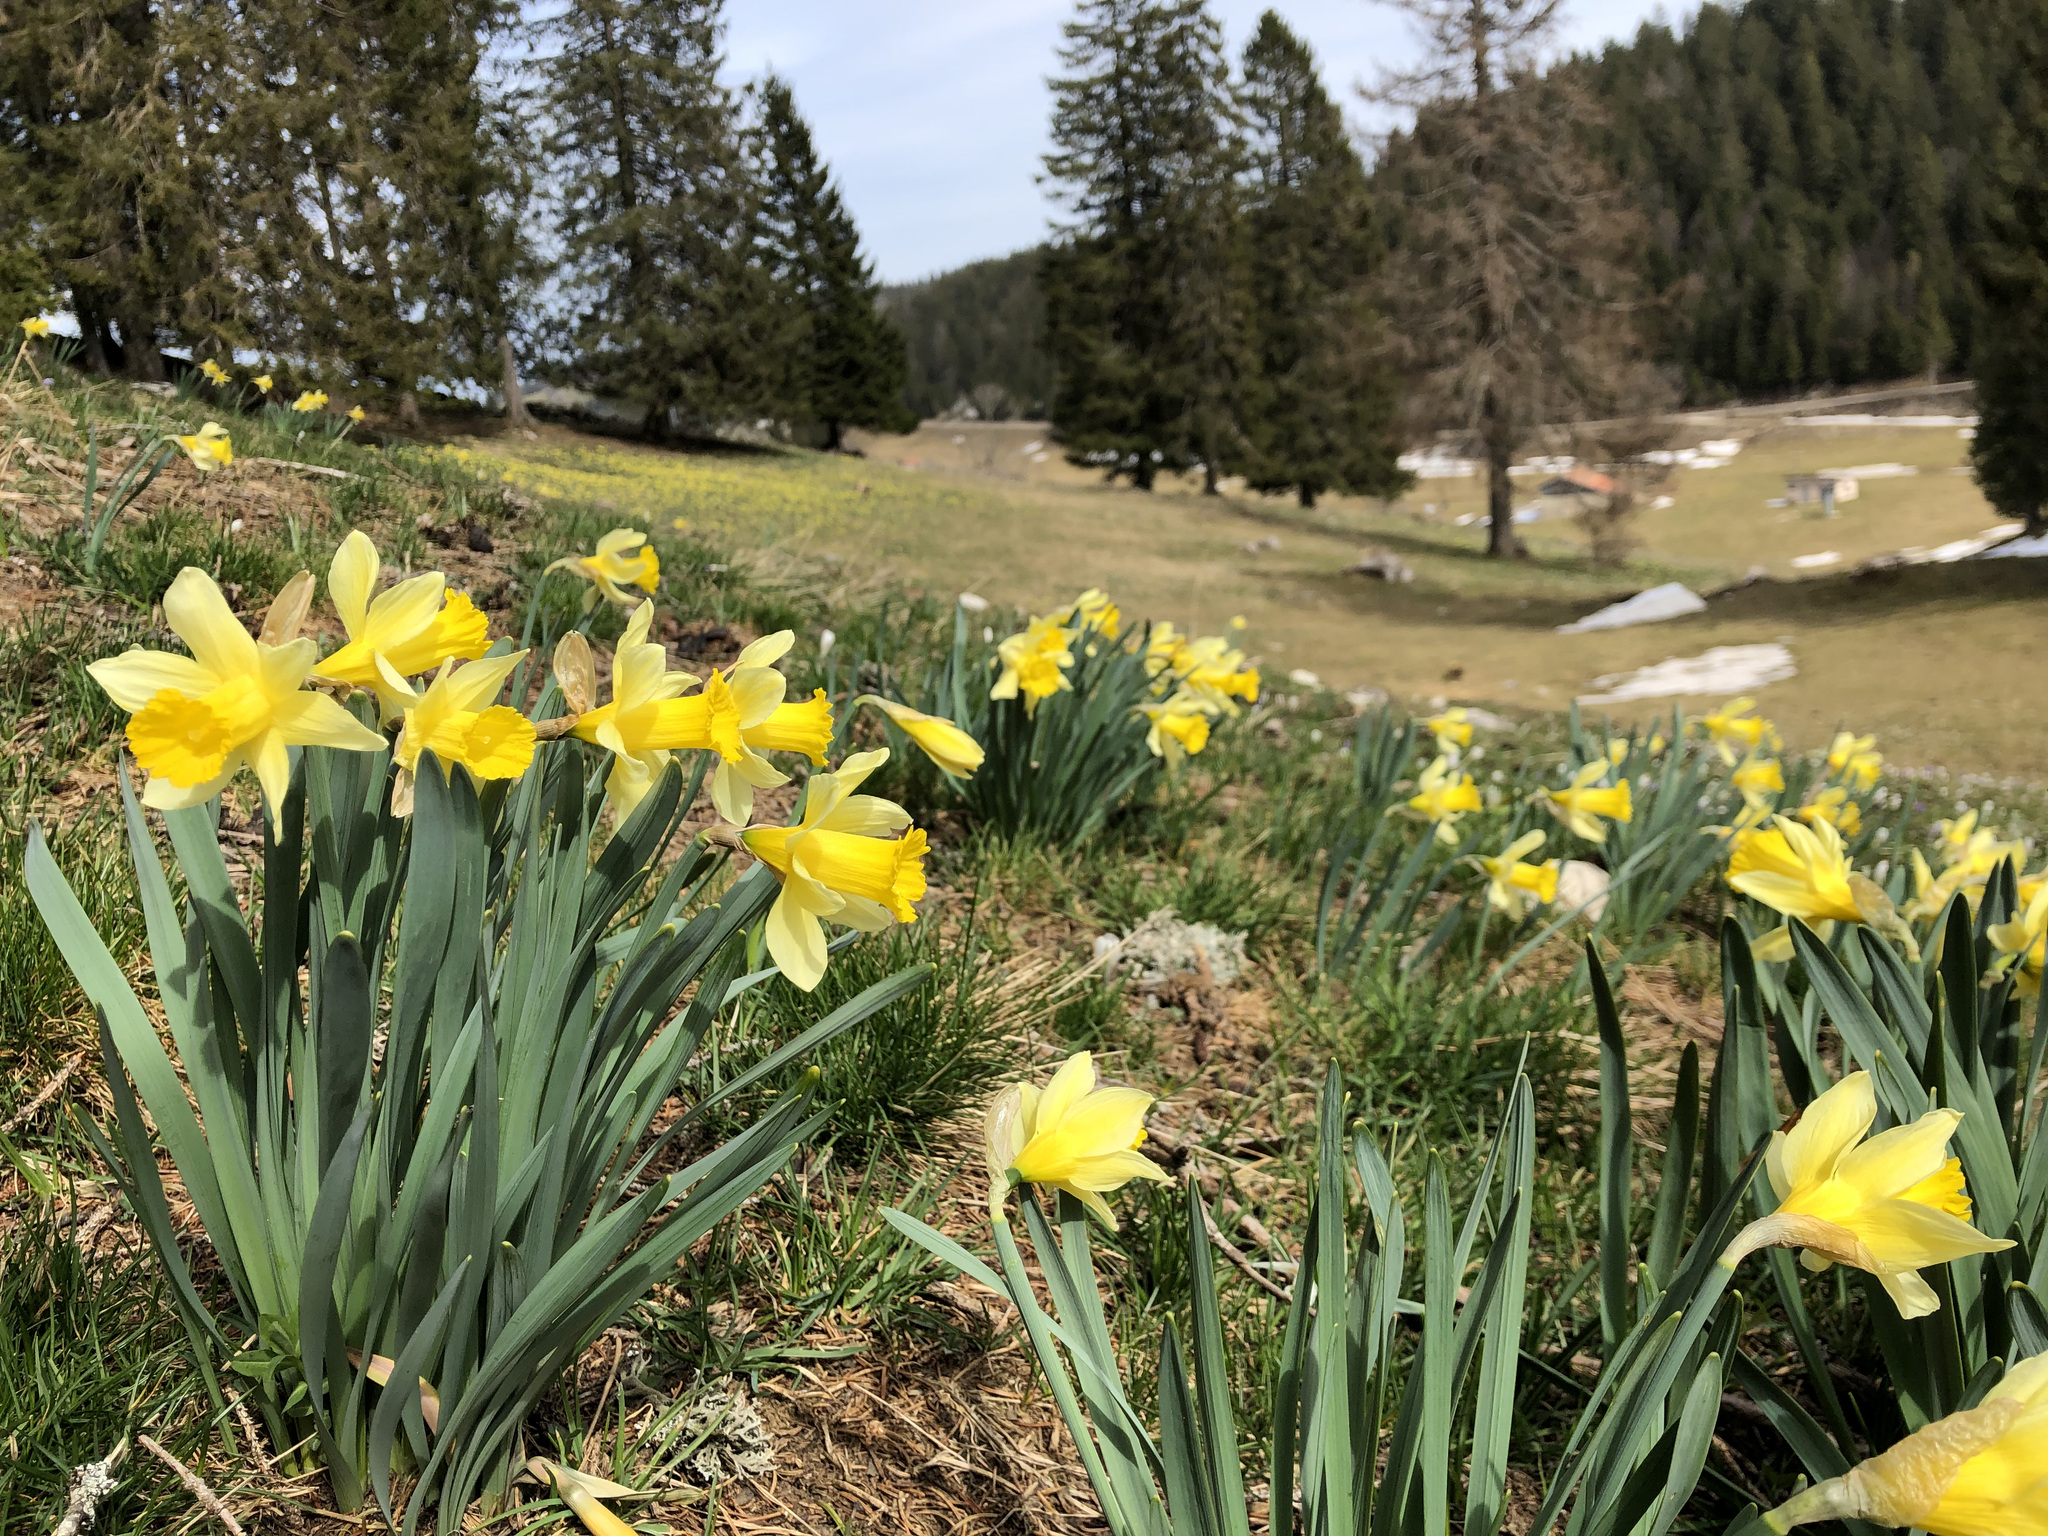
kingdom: Plantae
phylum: Tracheophyta
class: Liliopsida
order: Asparagales
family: Amaryllidaceae
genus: Narcissus
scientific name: Narcissus pseudonarcissus
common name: Daffodil
